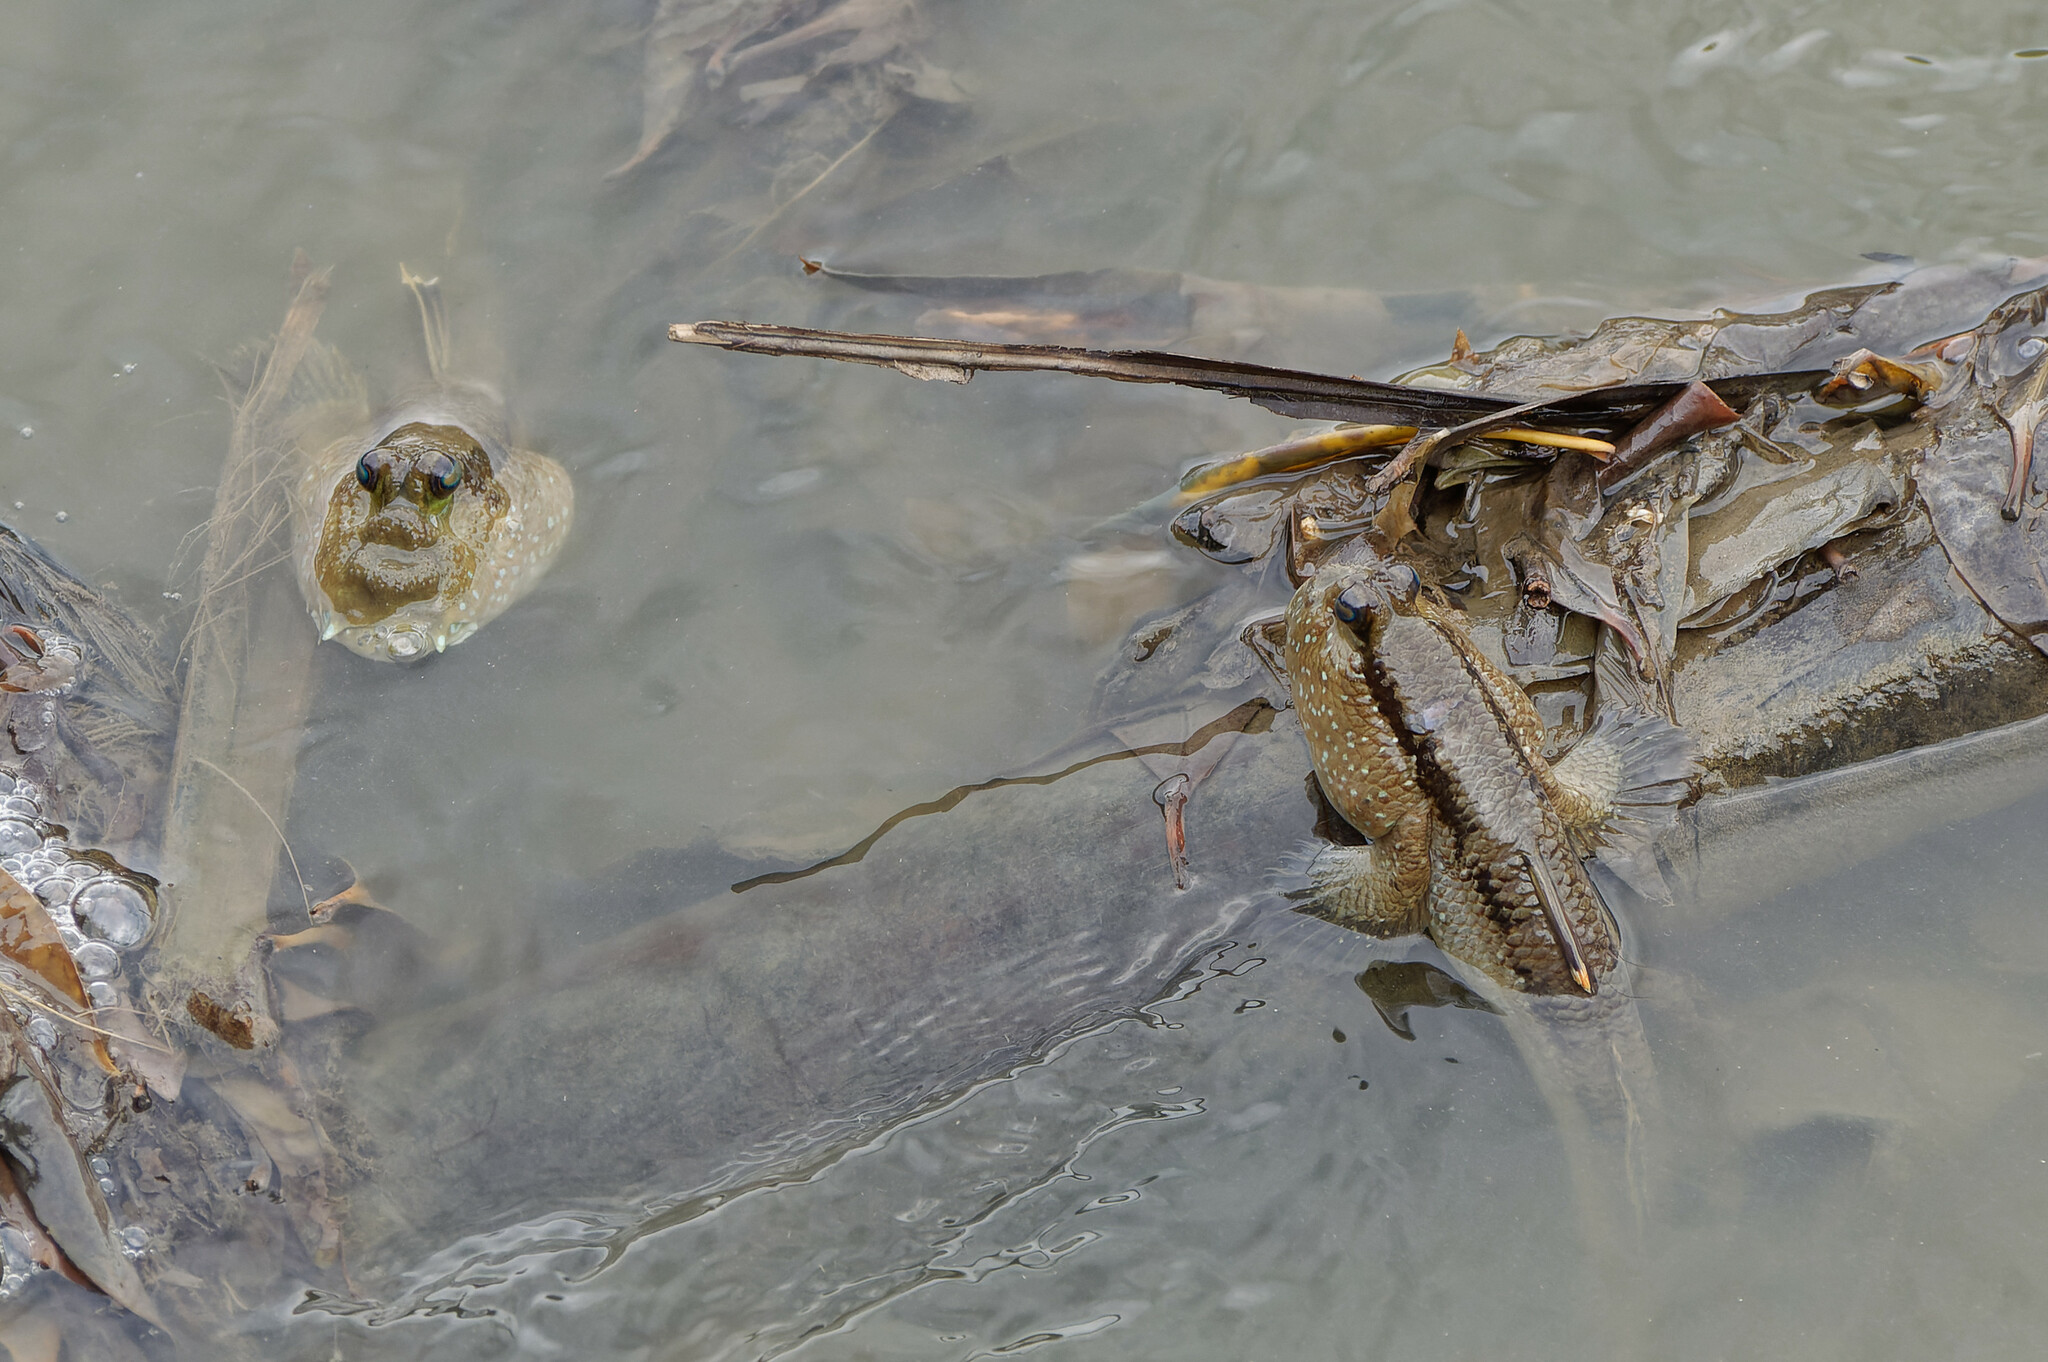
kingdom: Animalia
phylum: Chordata
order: Perciformes
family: Gobiidae
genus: Periophthalmodon
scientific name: Periophthalmodon schlosseri
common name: Giant mudskipper
